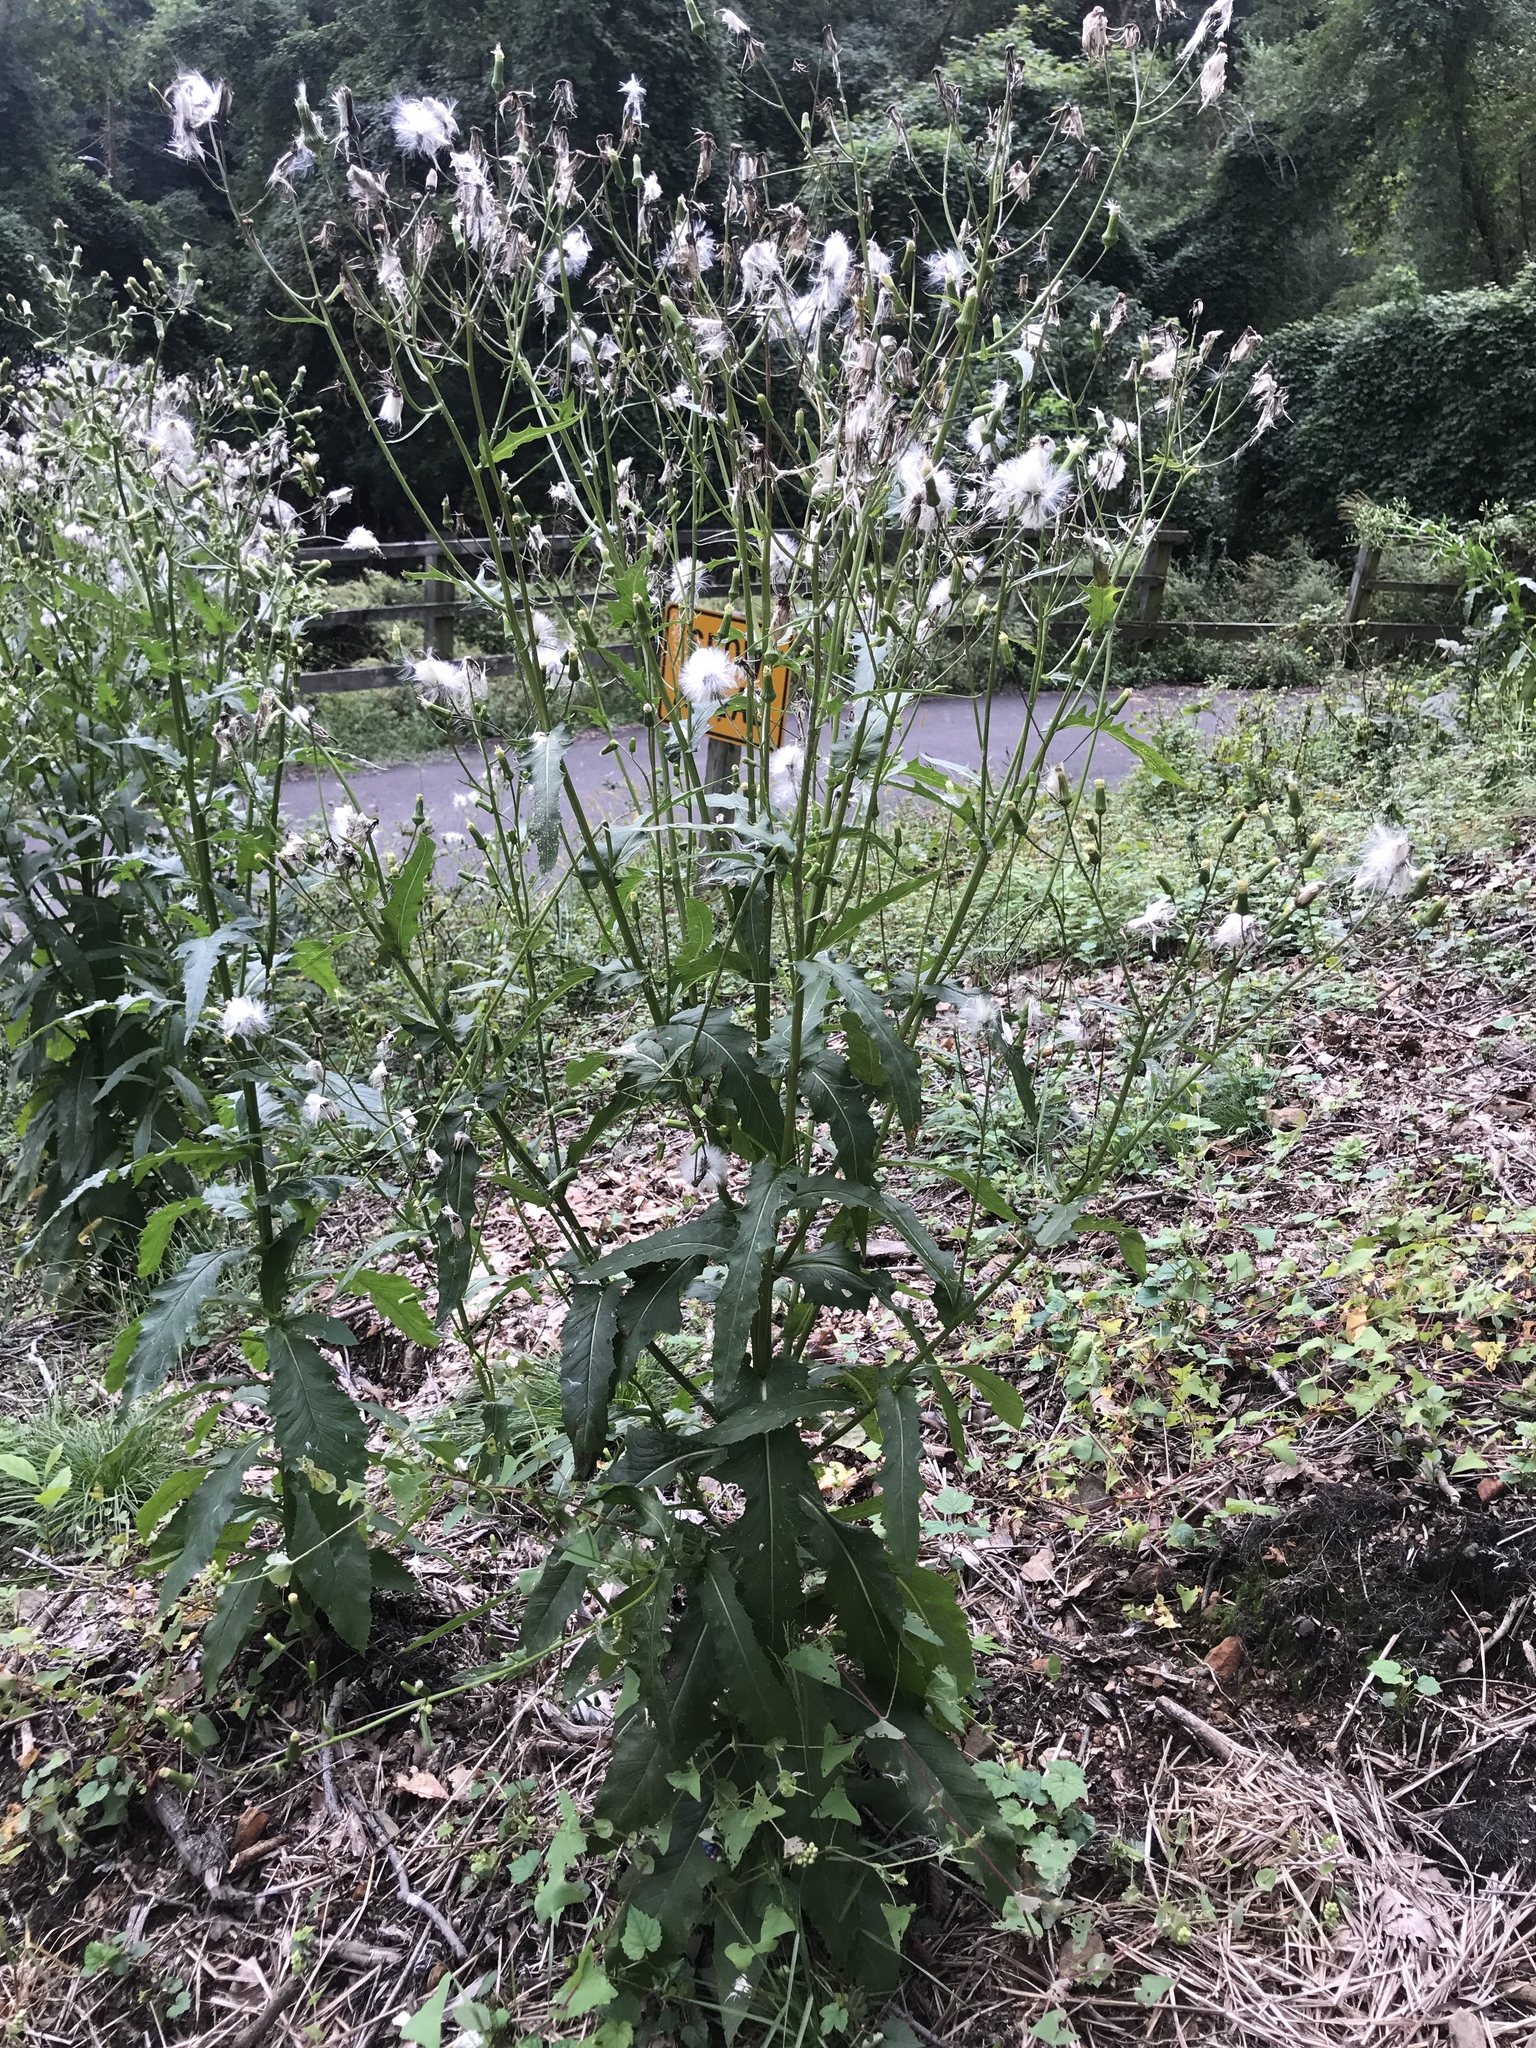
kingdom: Plantae
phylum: Tracheophyta
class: Magnoliopsida
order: Asterales
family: Asteraceae
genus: Erechtites
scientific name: Erechtites hieraciifolius
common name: American burnweed
